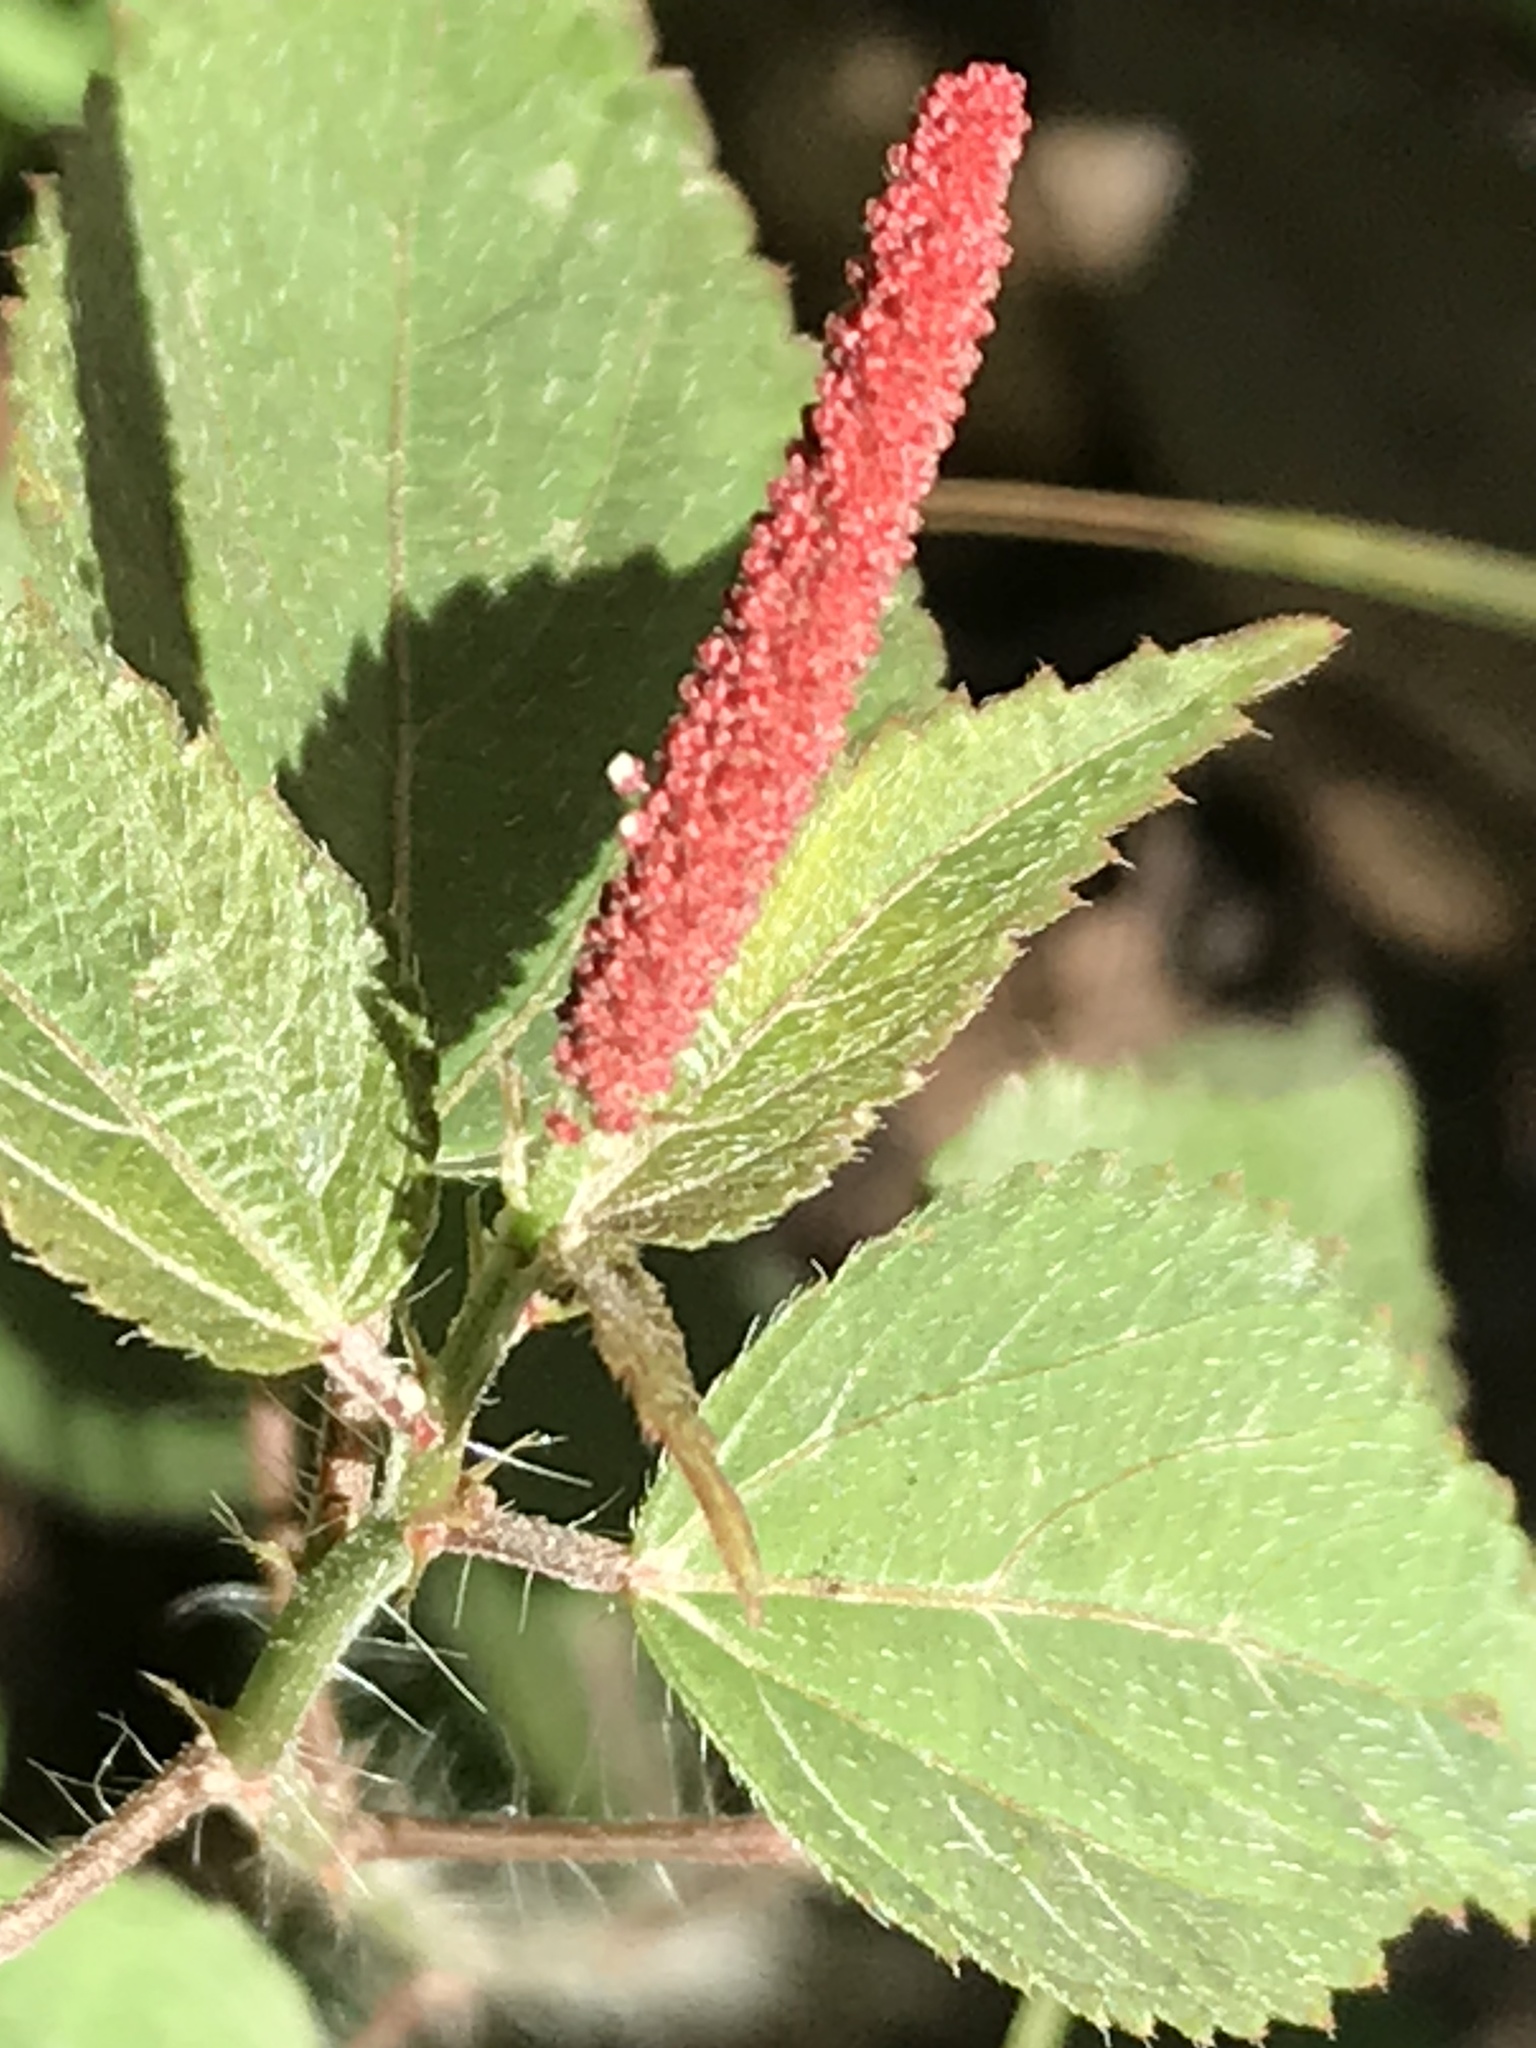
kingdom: Plantae
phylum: Tracheophyta
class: Magnoliopsida
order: Malpighiales
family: Euphorbiaceae
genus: Acalypha
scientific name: Acalypha phleoides
